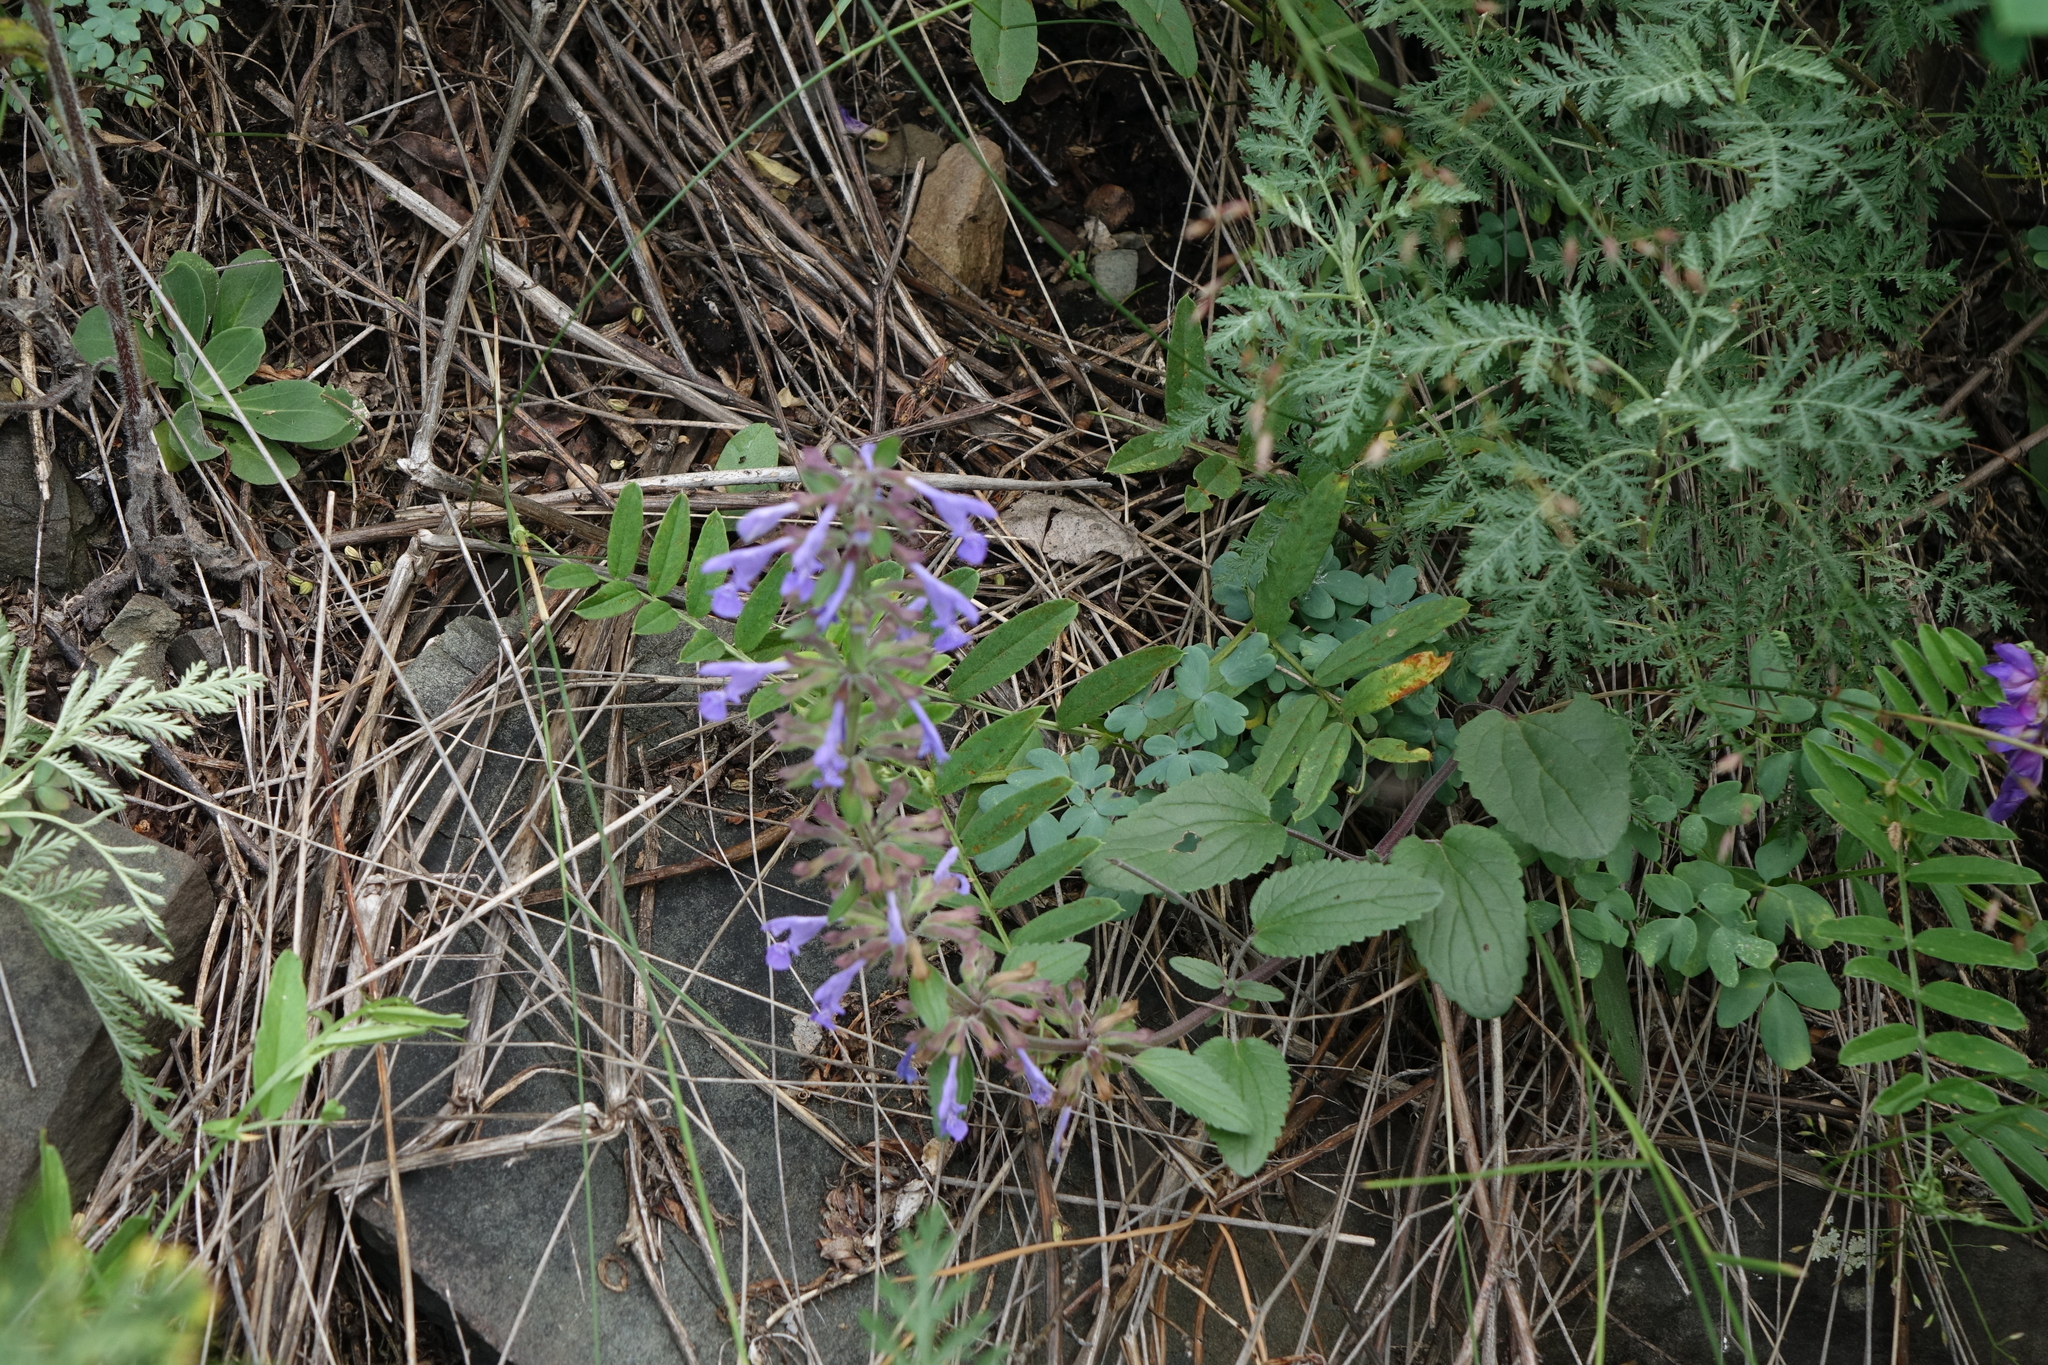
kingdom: Plantae
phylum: Tracheophyta
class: Magnoliopsida
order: Lamiales
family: Lamiaceae
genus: Dracocephalum
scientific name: Dracocephalum nutans
